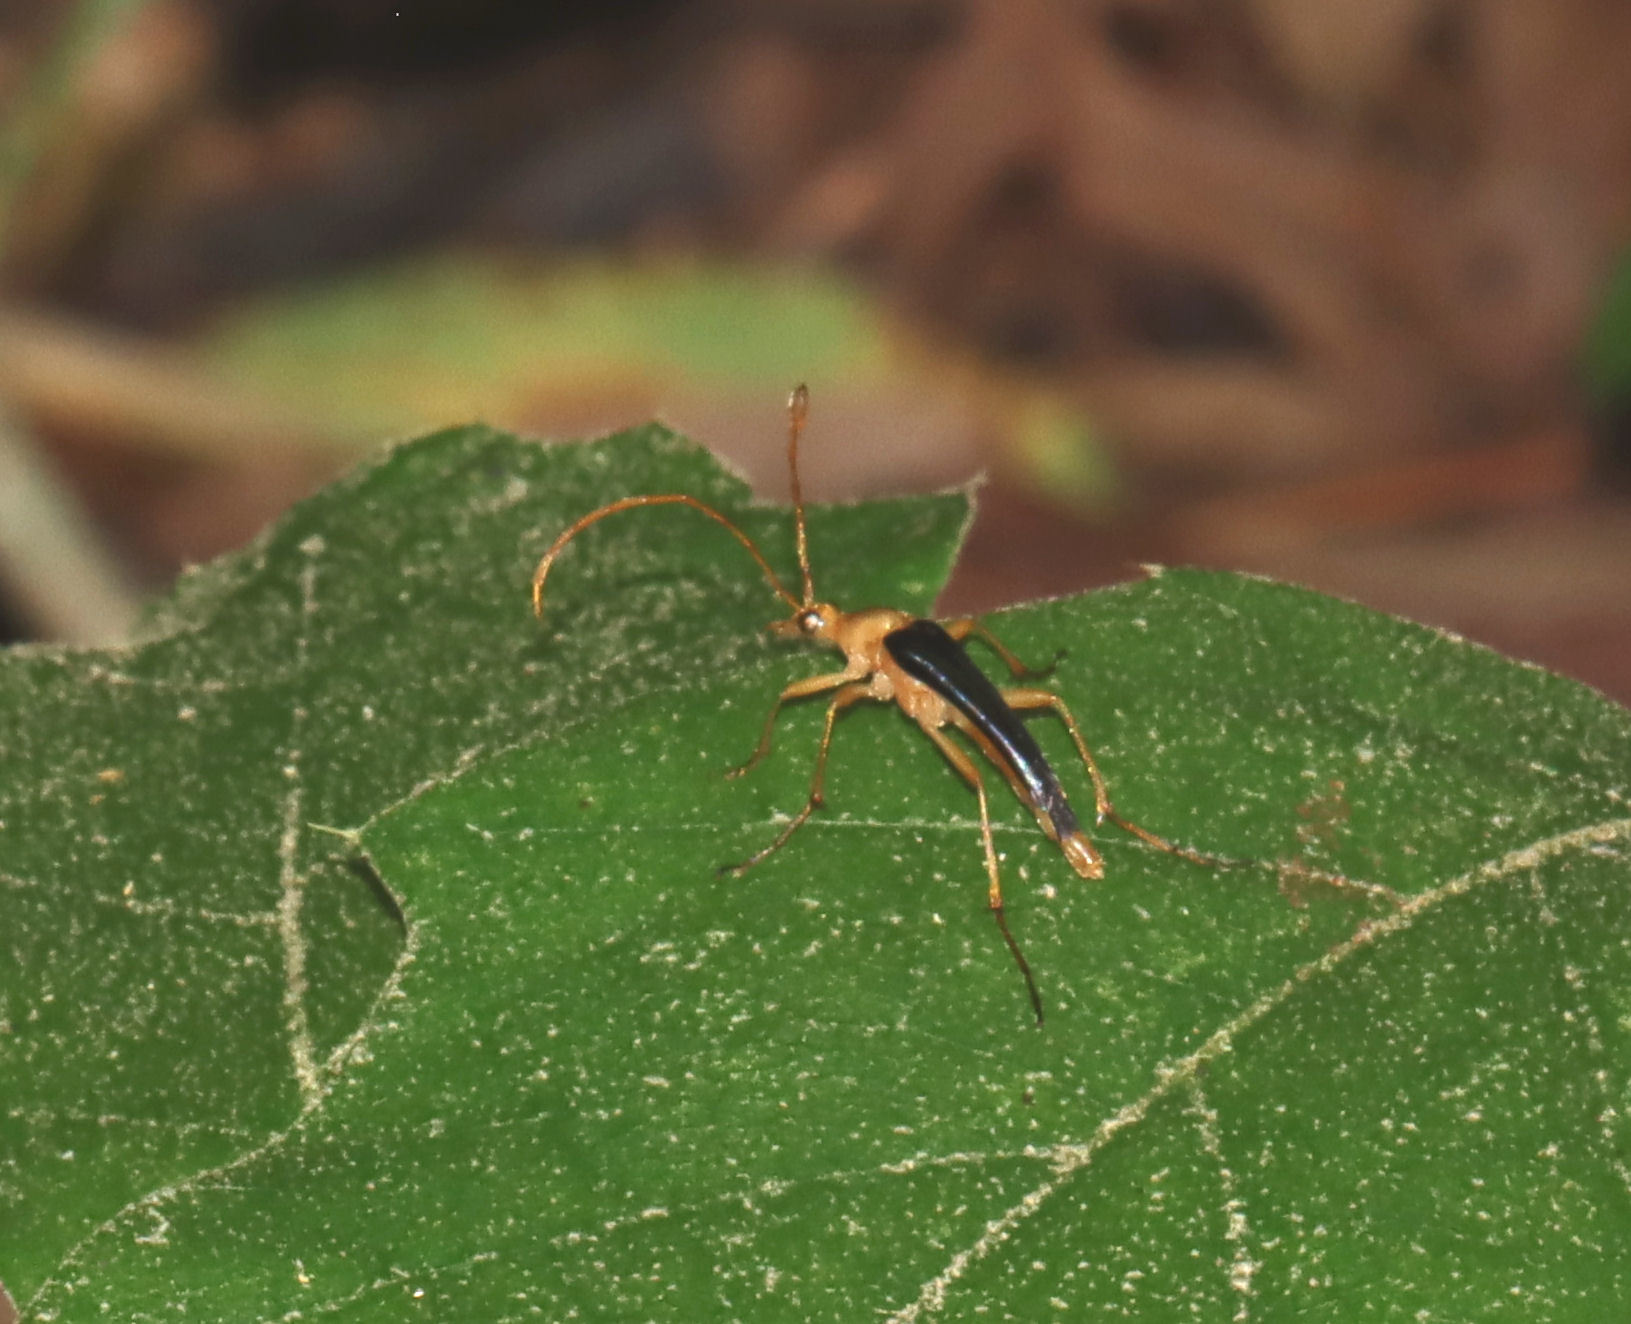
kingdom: Animalia
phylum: Arthropoda
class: Insecta
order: Coleoptera
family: Cerambycidae
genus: Strangalia
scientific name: Strangalia bicolor
